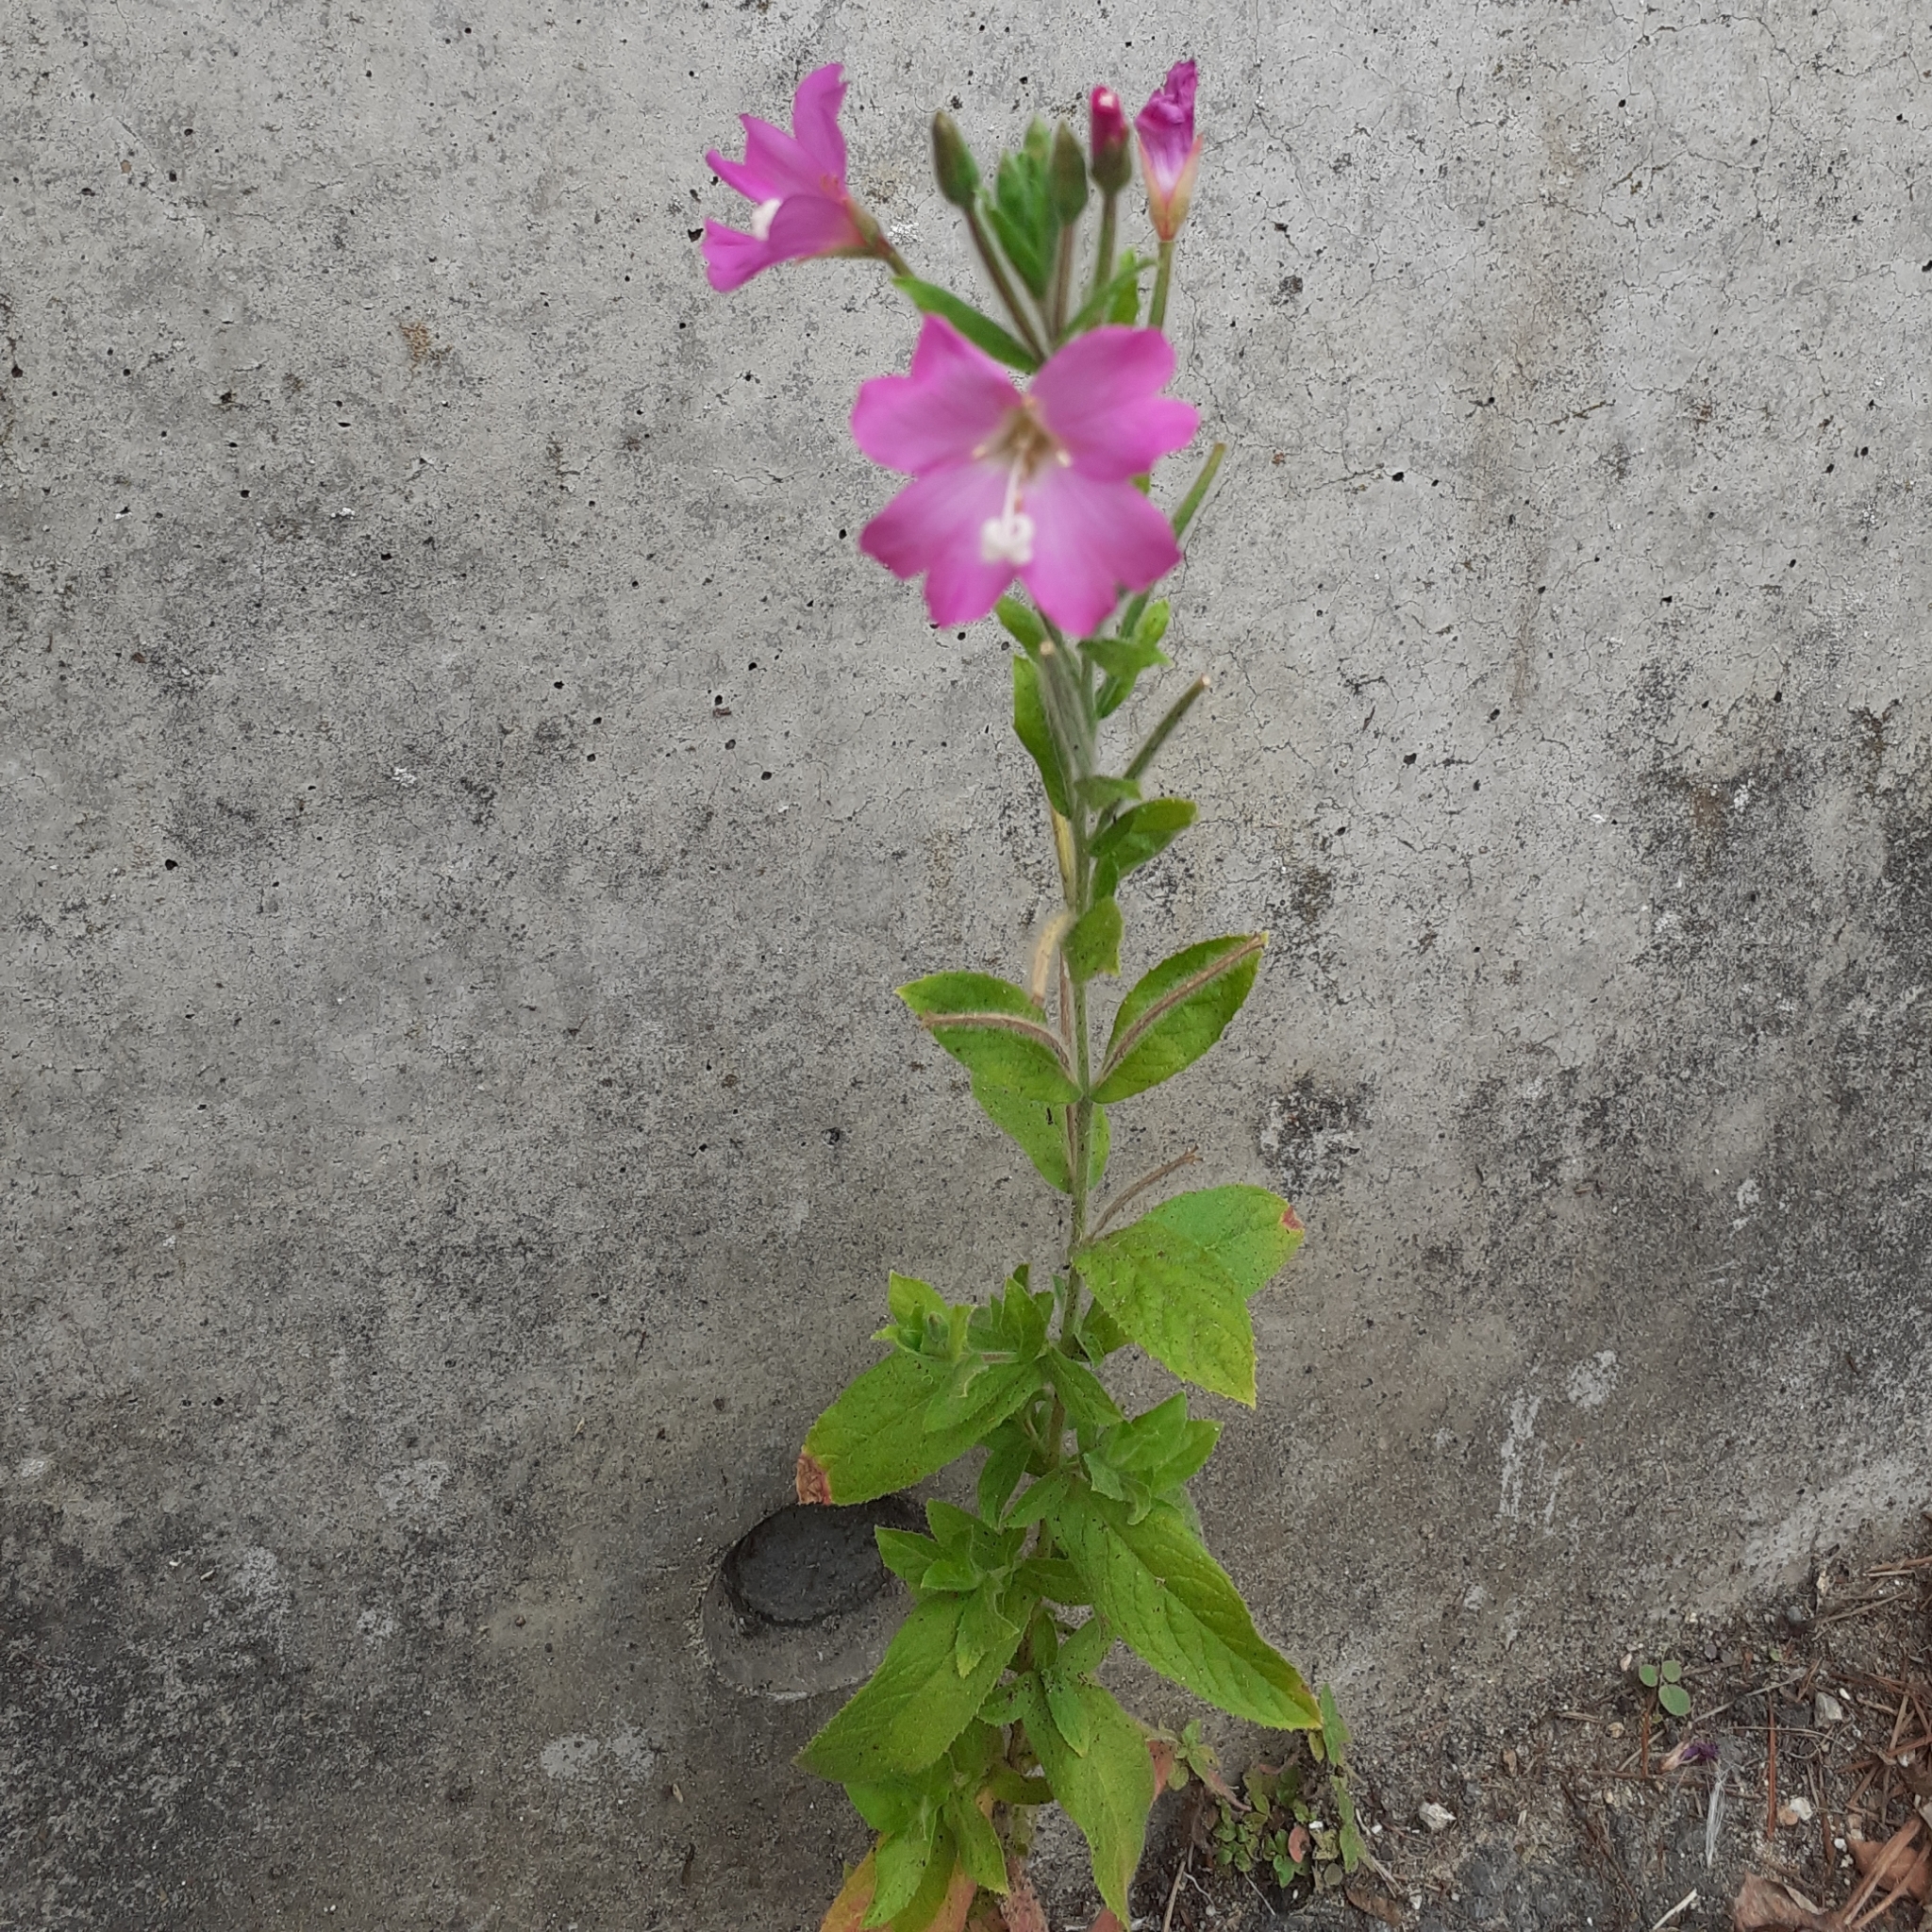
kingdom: Plantae
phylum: Tracheophyta
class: Magnoliopsida
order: Myrtales
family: Onagraceae
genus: Epilobium
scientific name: Epilobium hirsutum
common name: Great willowherb
